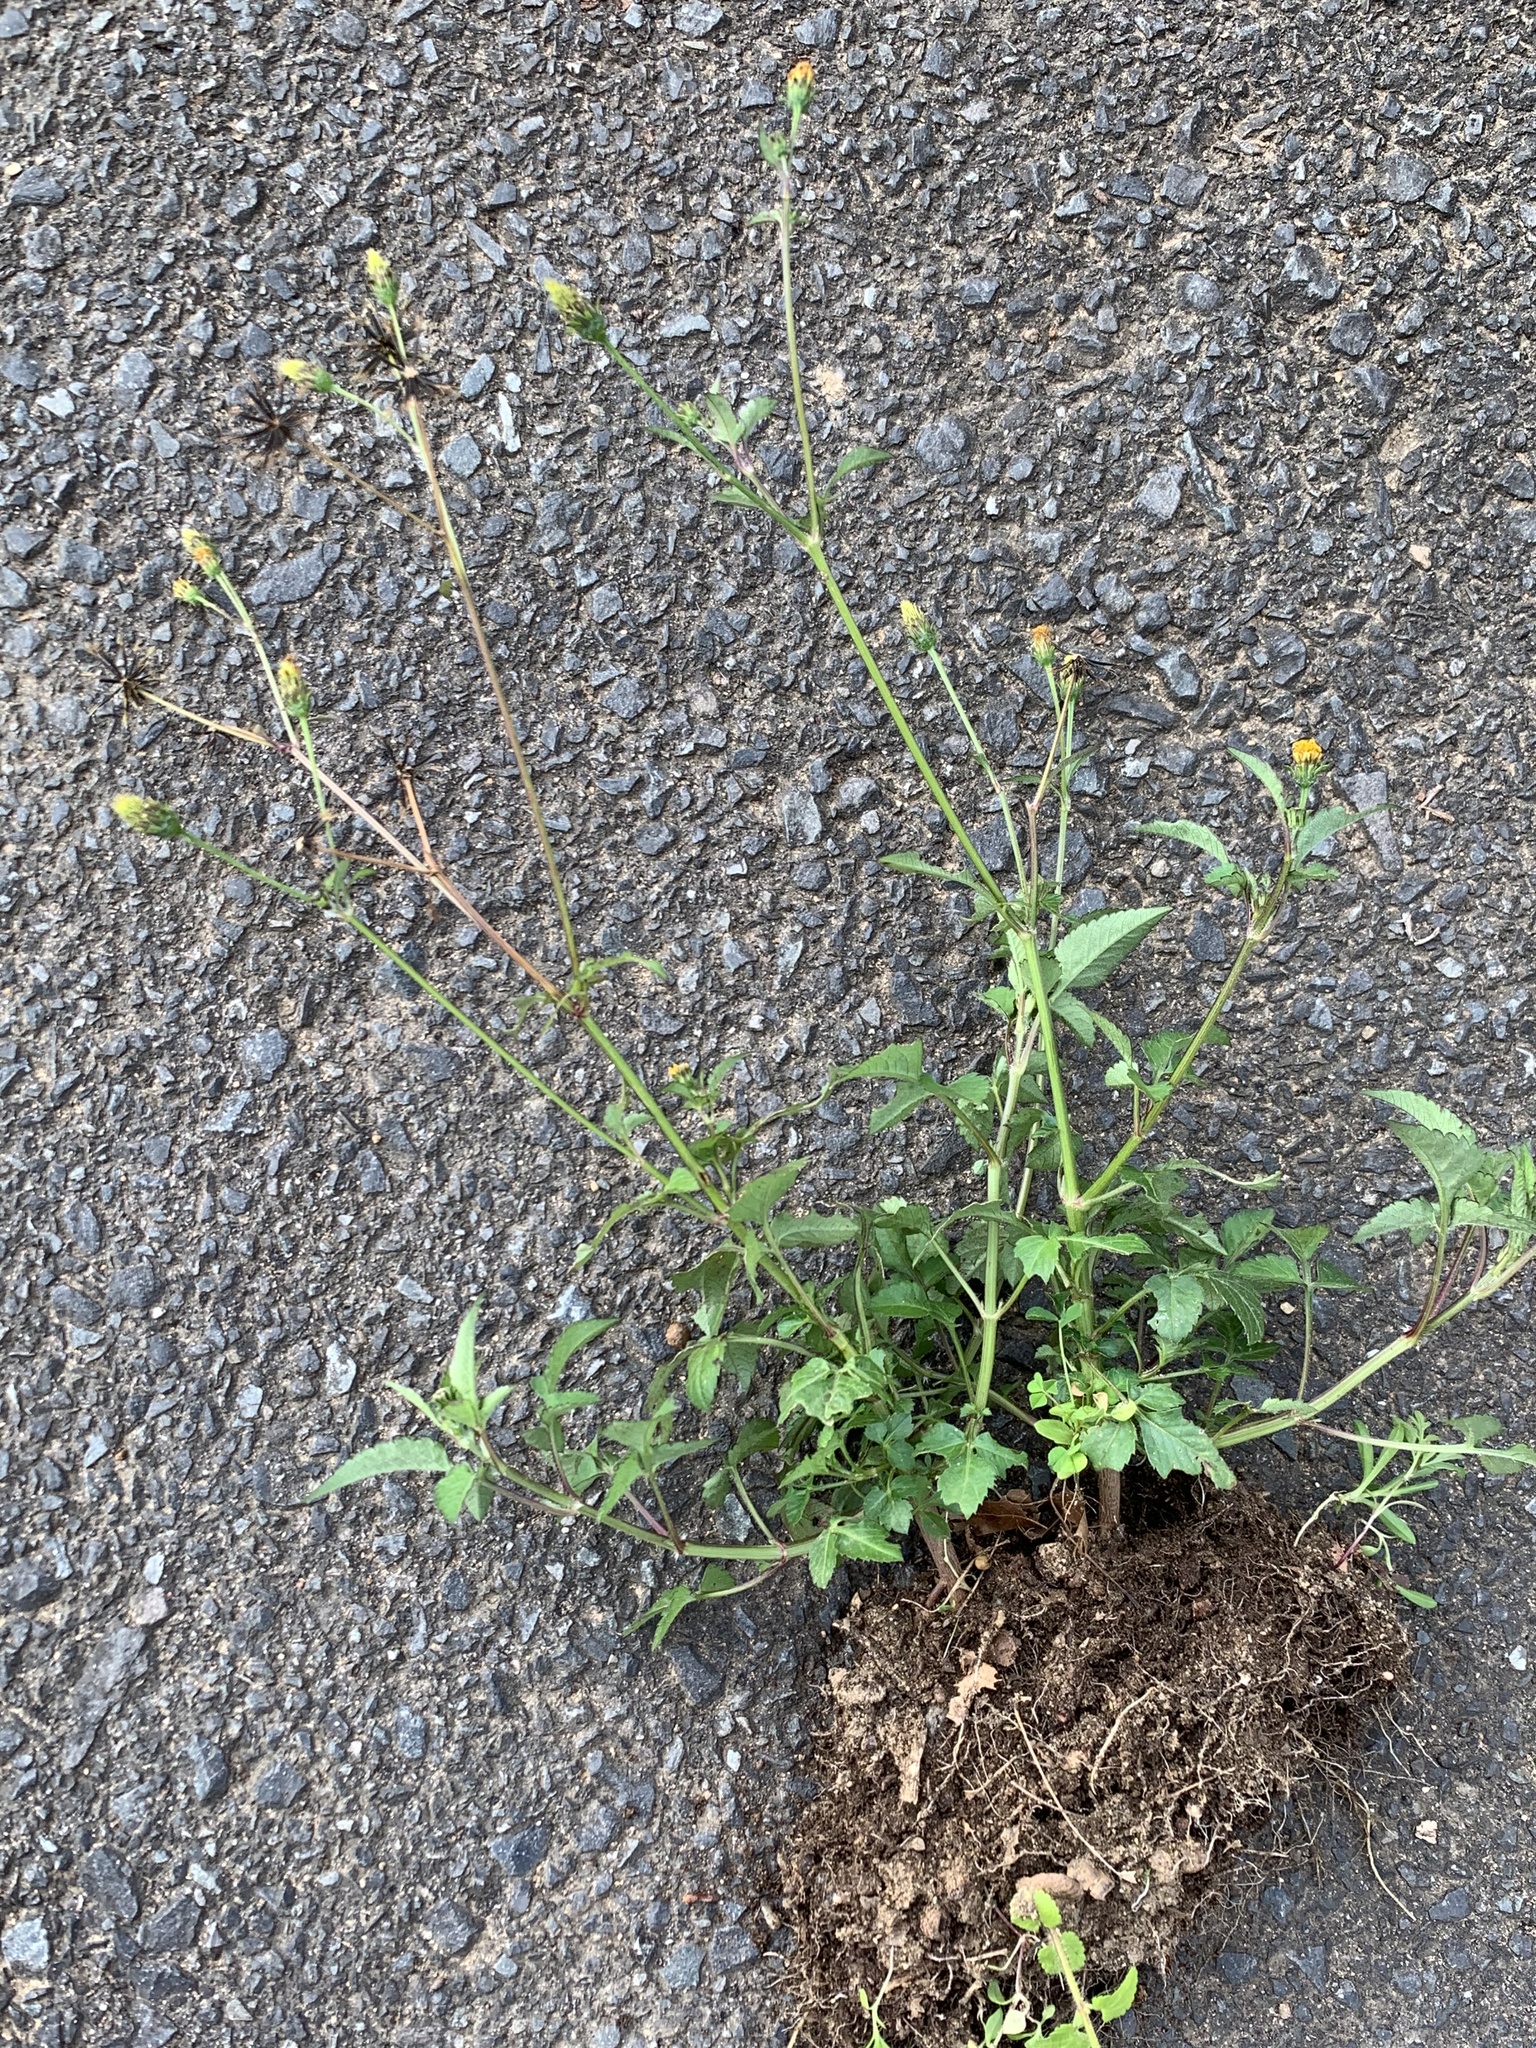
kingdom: Plantae
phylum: Tracheophyta
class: Magnoliopsida
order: Asterales
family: Asteraceae
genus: Bidens
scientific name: Bidens pilosa
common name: Black-jack
